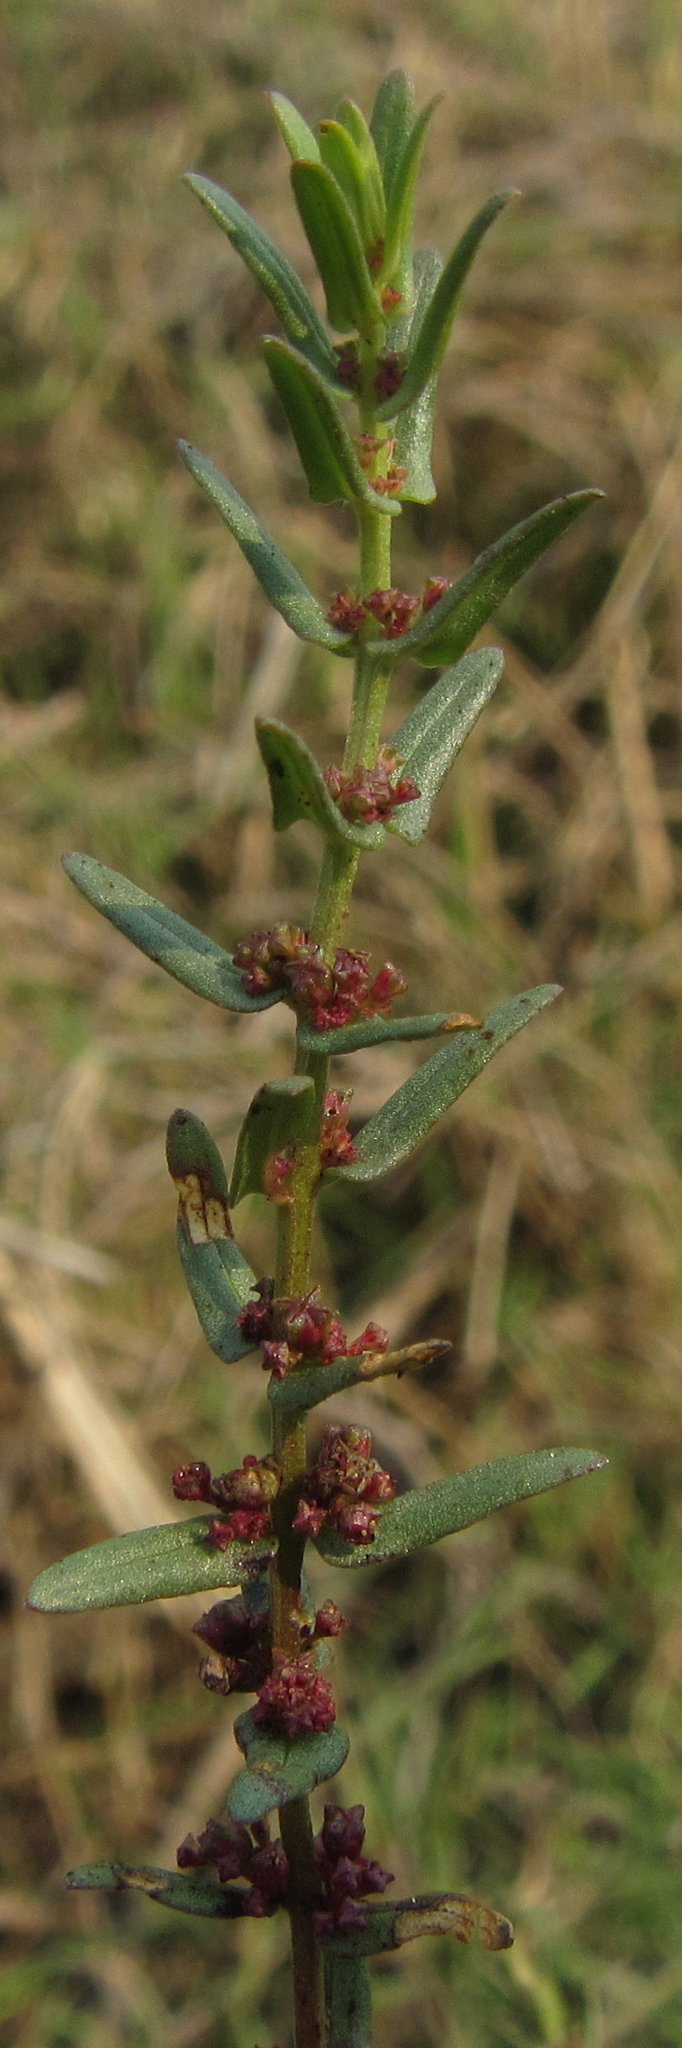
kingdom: Plantae
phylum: Tracheophyta
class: Magnoliopsida
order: Myrtales
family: Lythraceae
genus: Ammannia
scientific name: Ammannia prieuriana
